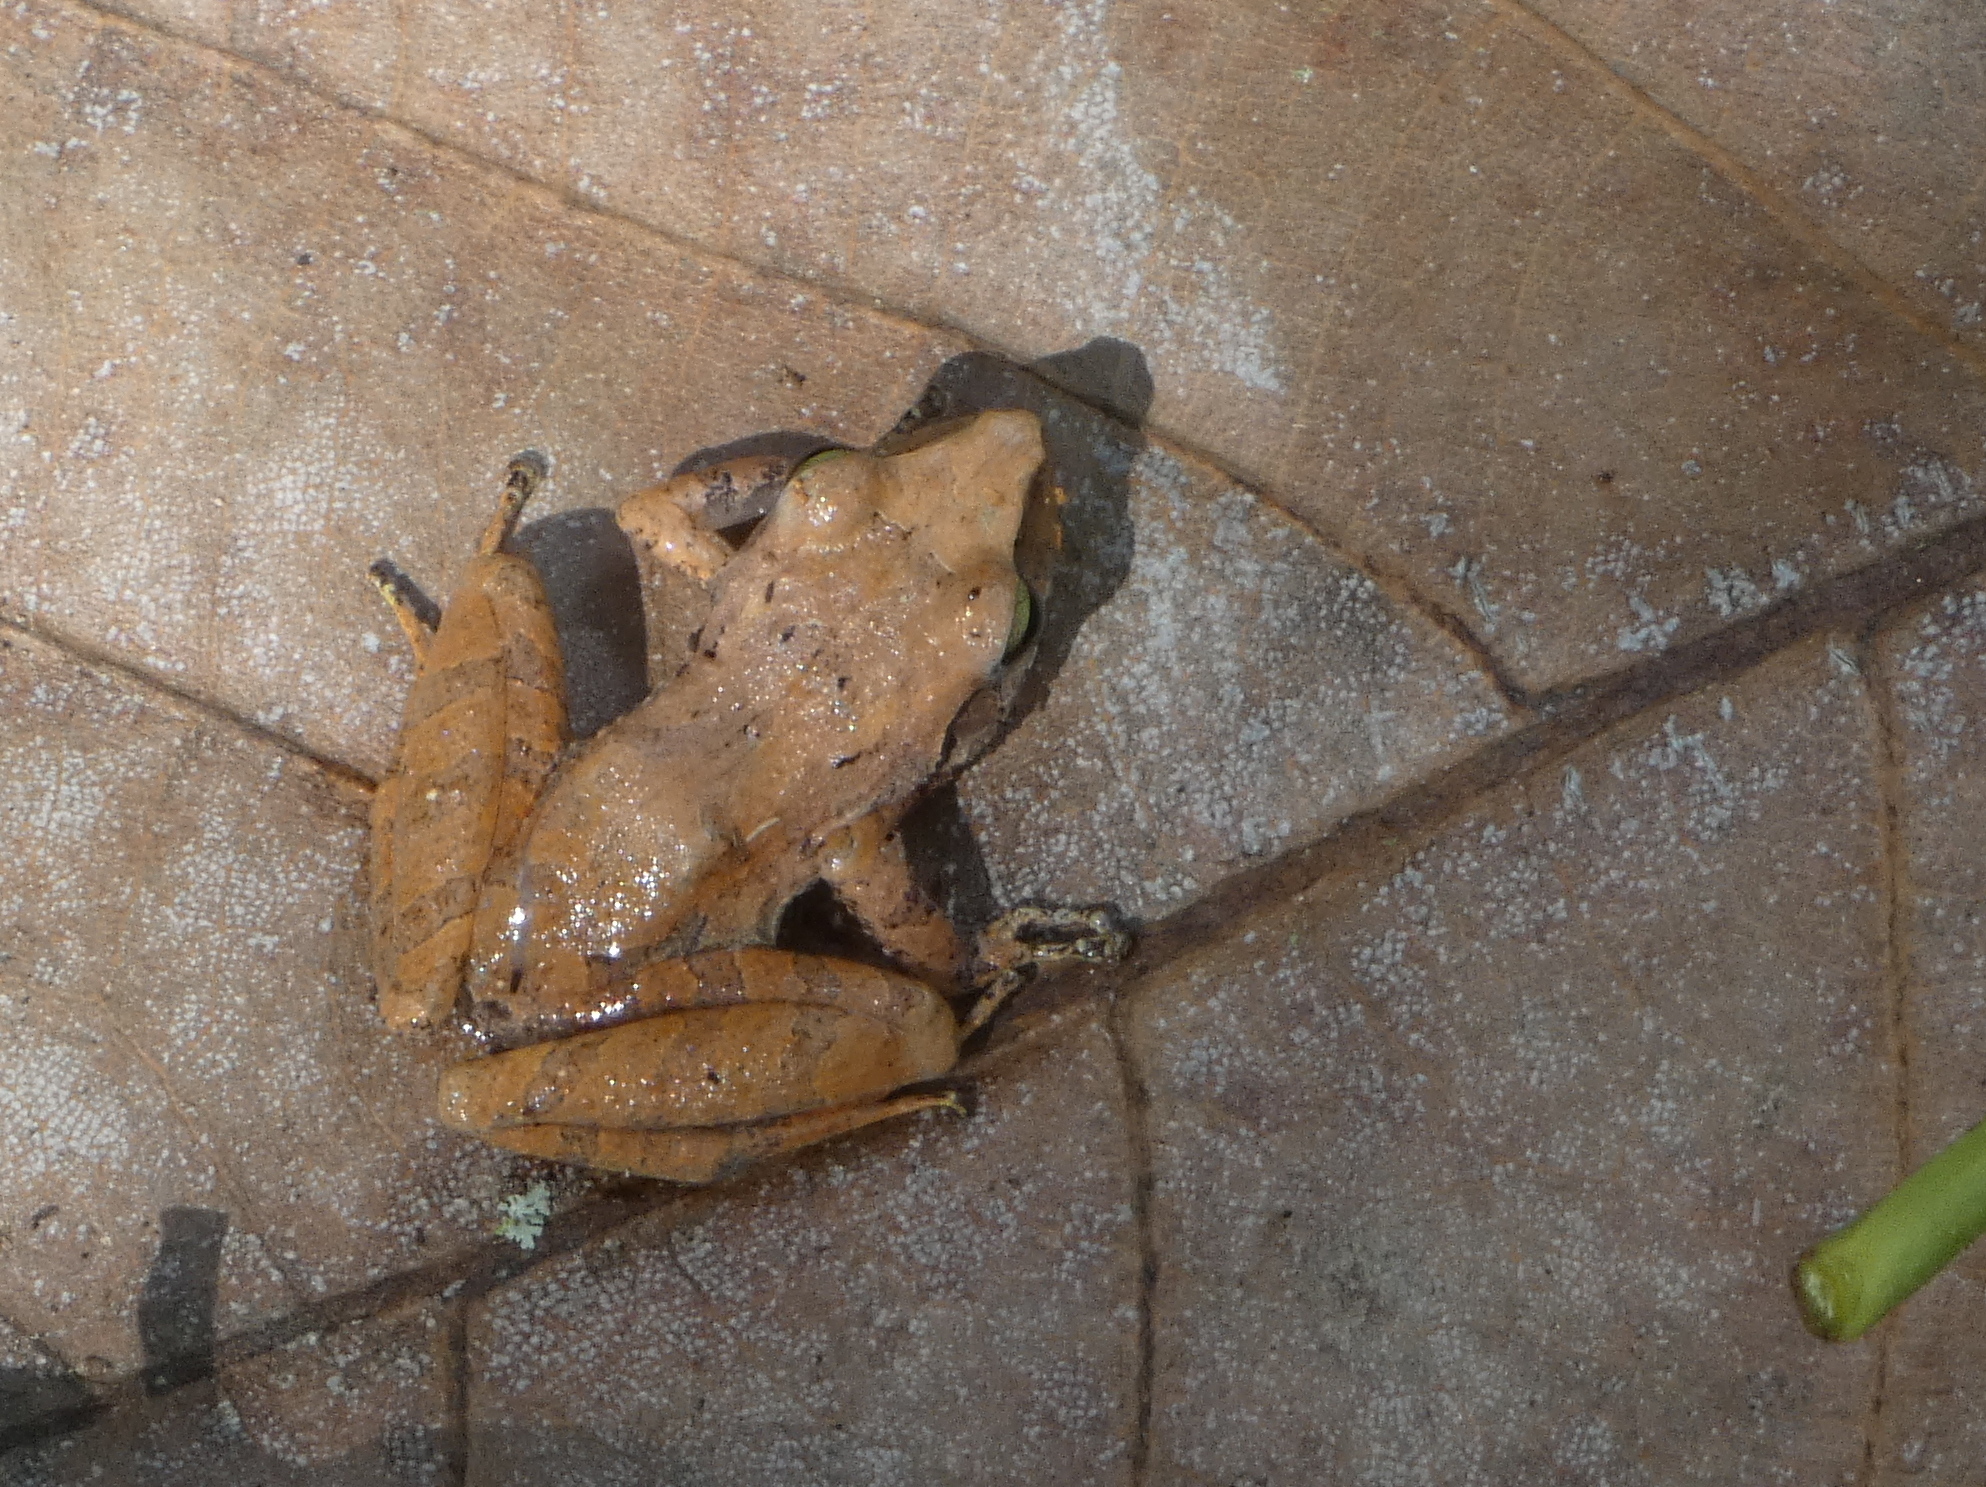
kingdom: Animalia
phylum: Chordata
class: Amphibia
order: Anura
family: Craugastoridae
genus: Pristimantis
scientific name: Pristimantis ramagii
